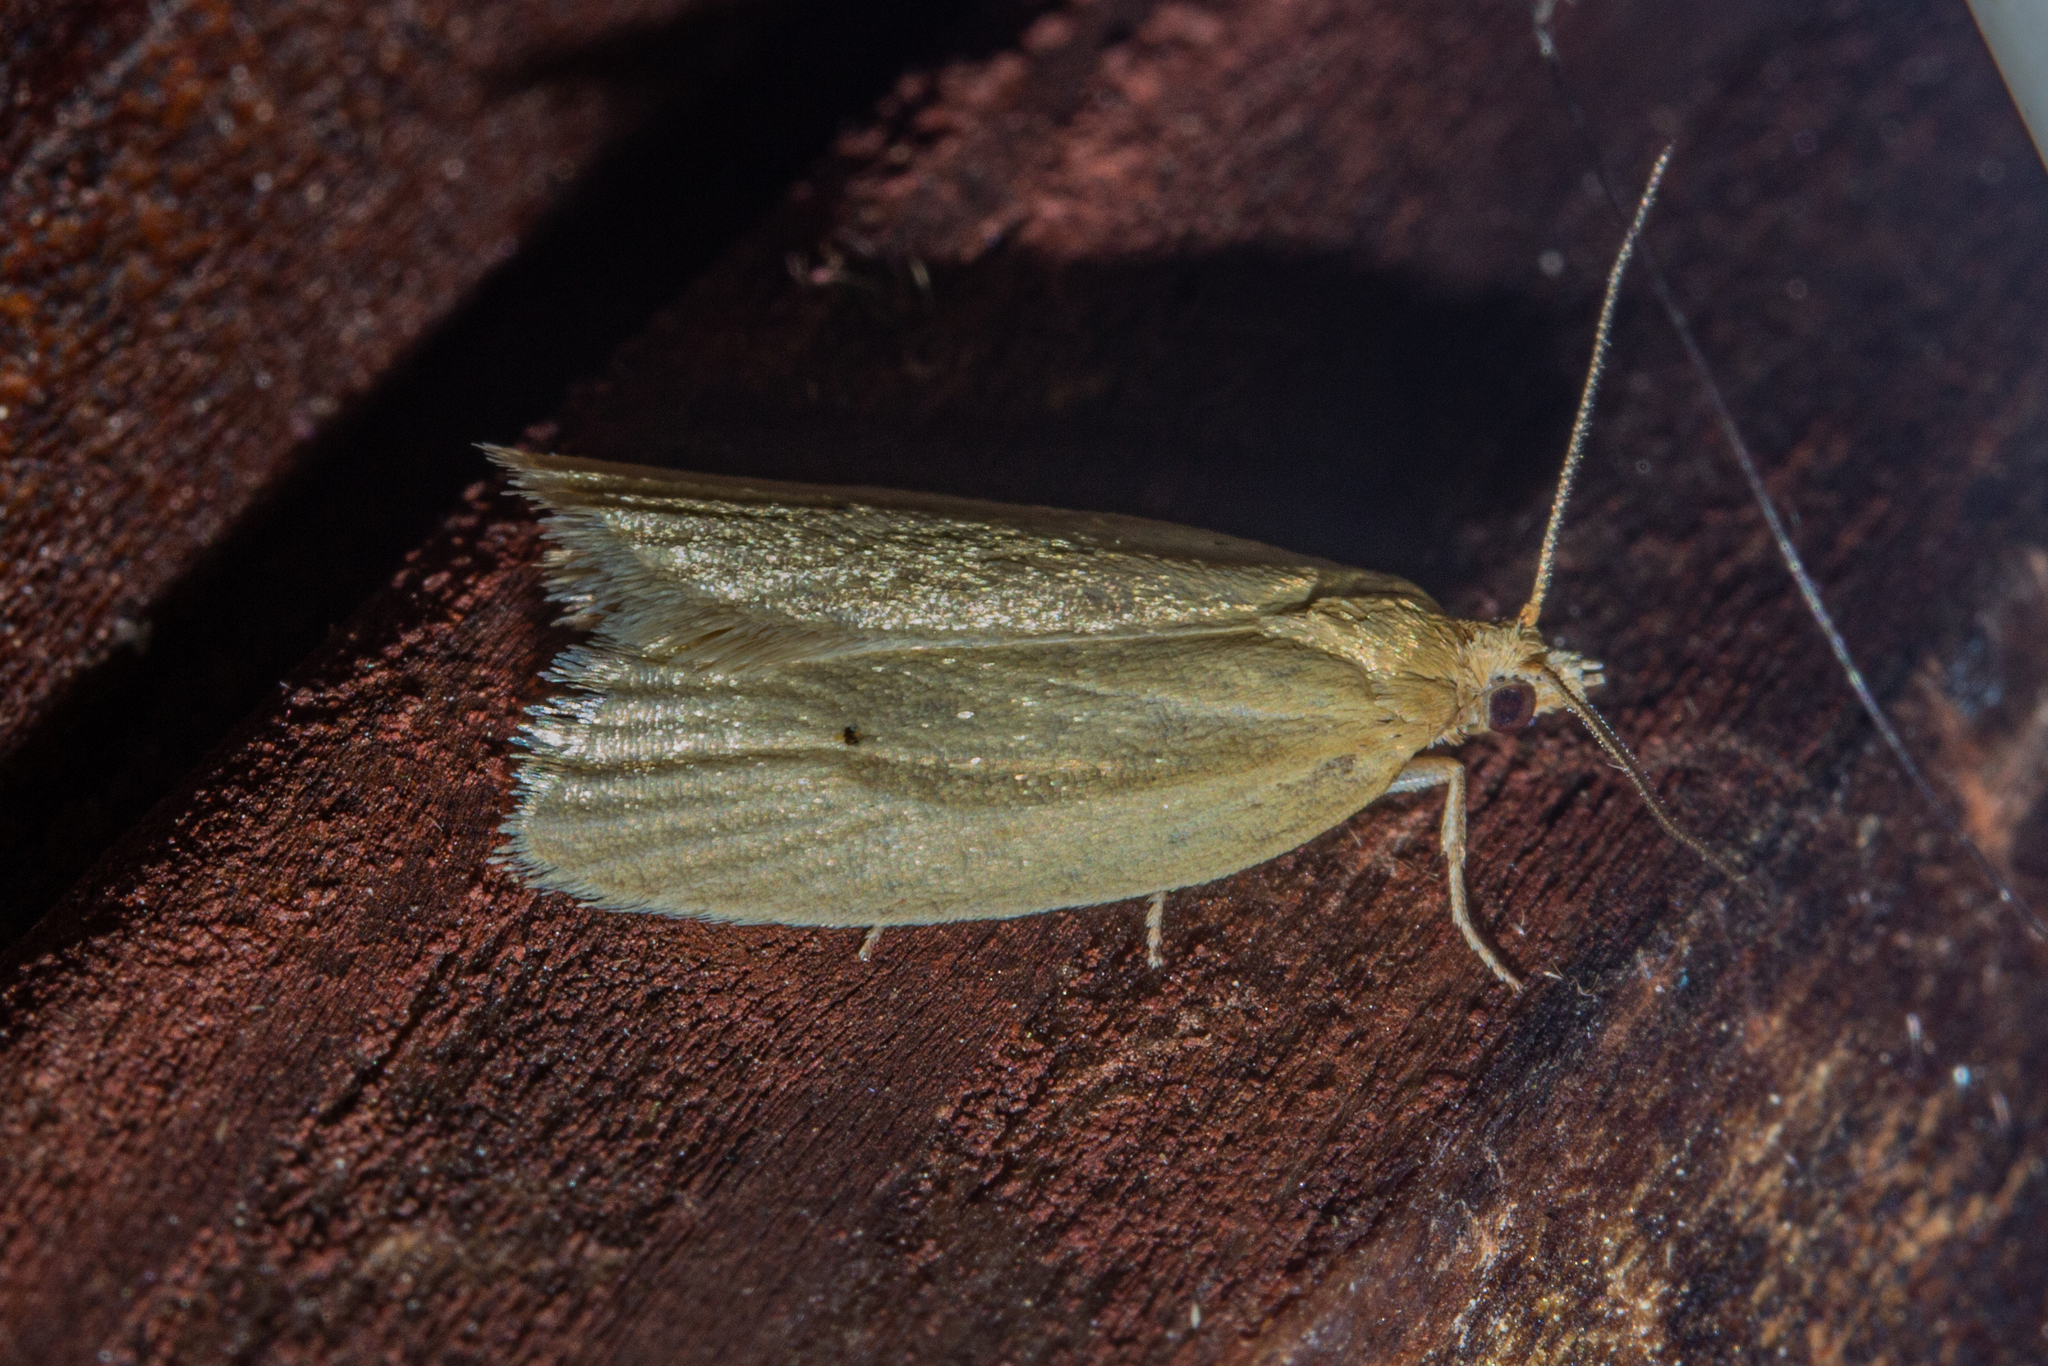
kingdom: Animalia
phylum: Arthropoda
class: Insecta
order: Lepidoptera
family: Tortricidae
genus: Clepsis
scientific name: Clepsis
